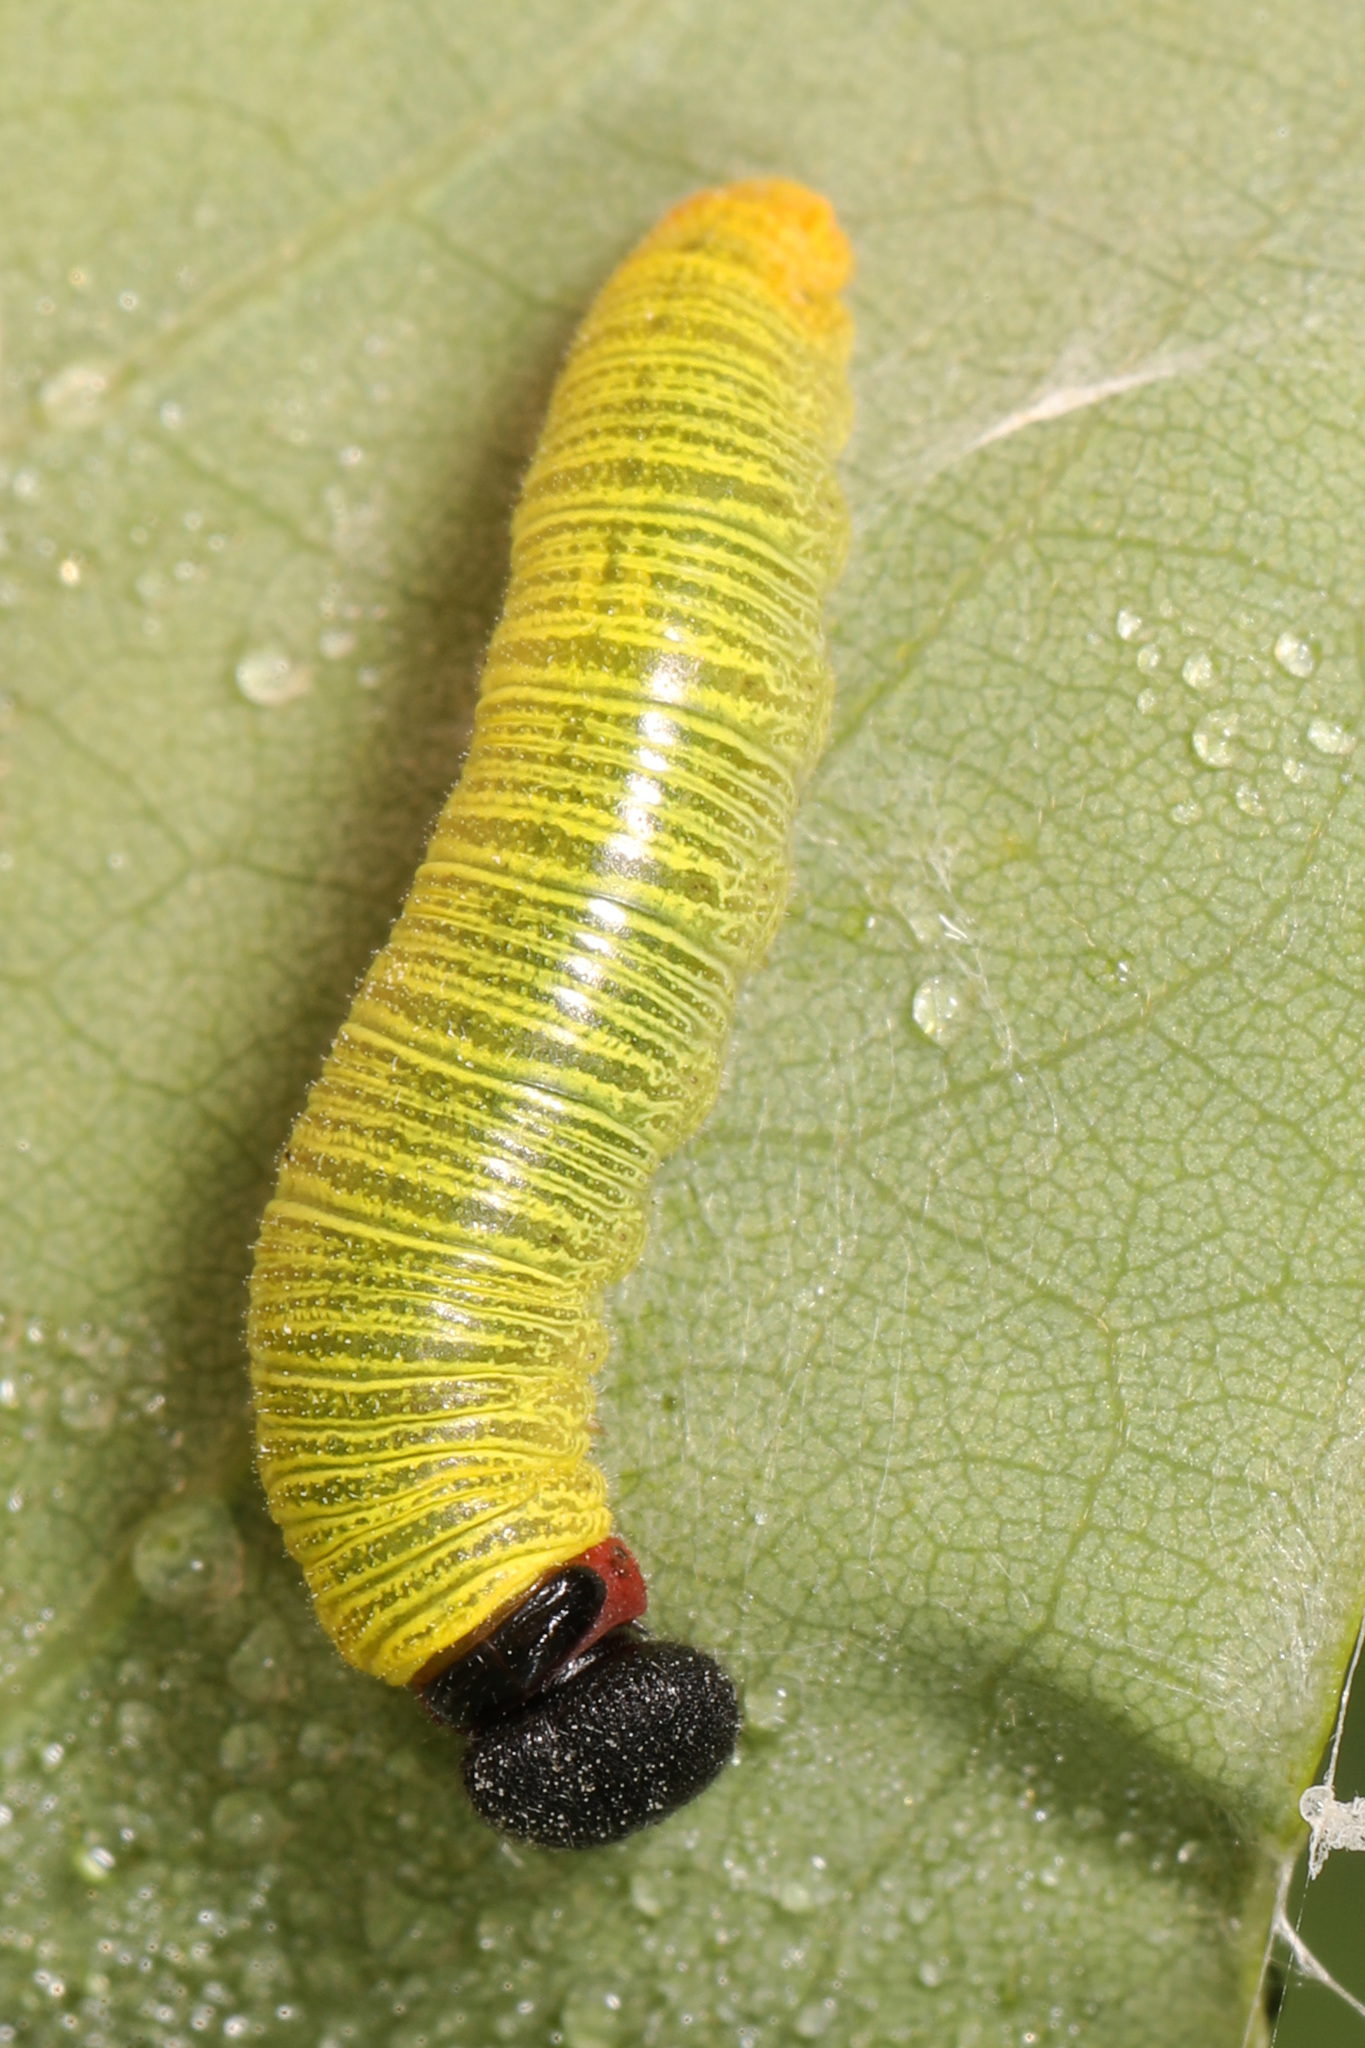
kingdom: Animalia
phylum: Arthropoda
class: Insecta
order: Lepidoptera
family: Hesperiidae
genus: Epargyreus
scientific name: Epargyreus clarus
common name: Silver-spotted skipper
